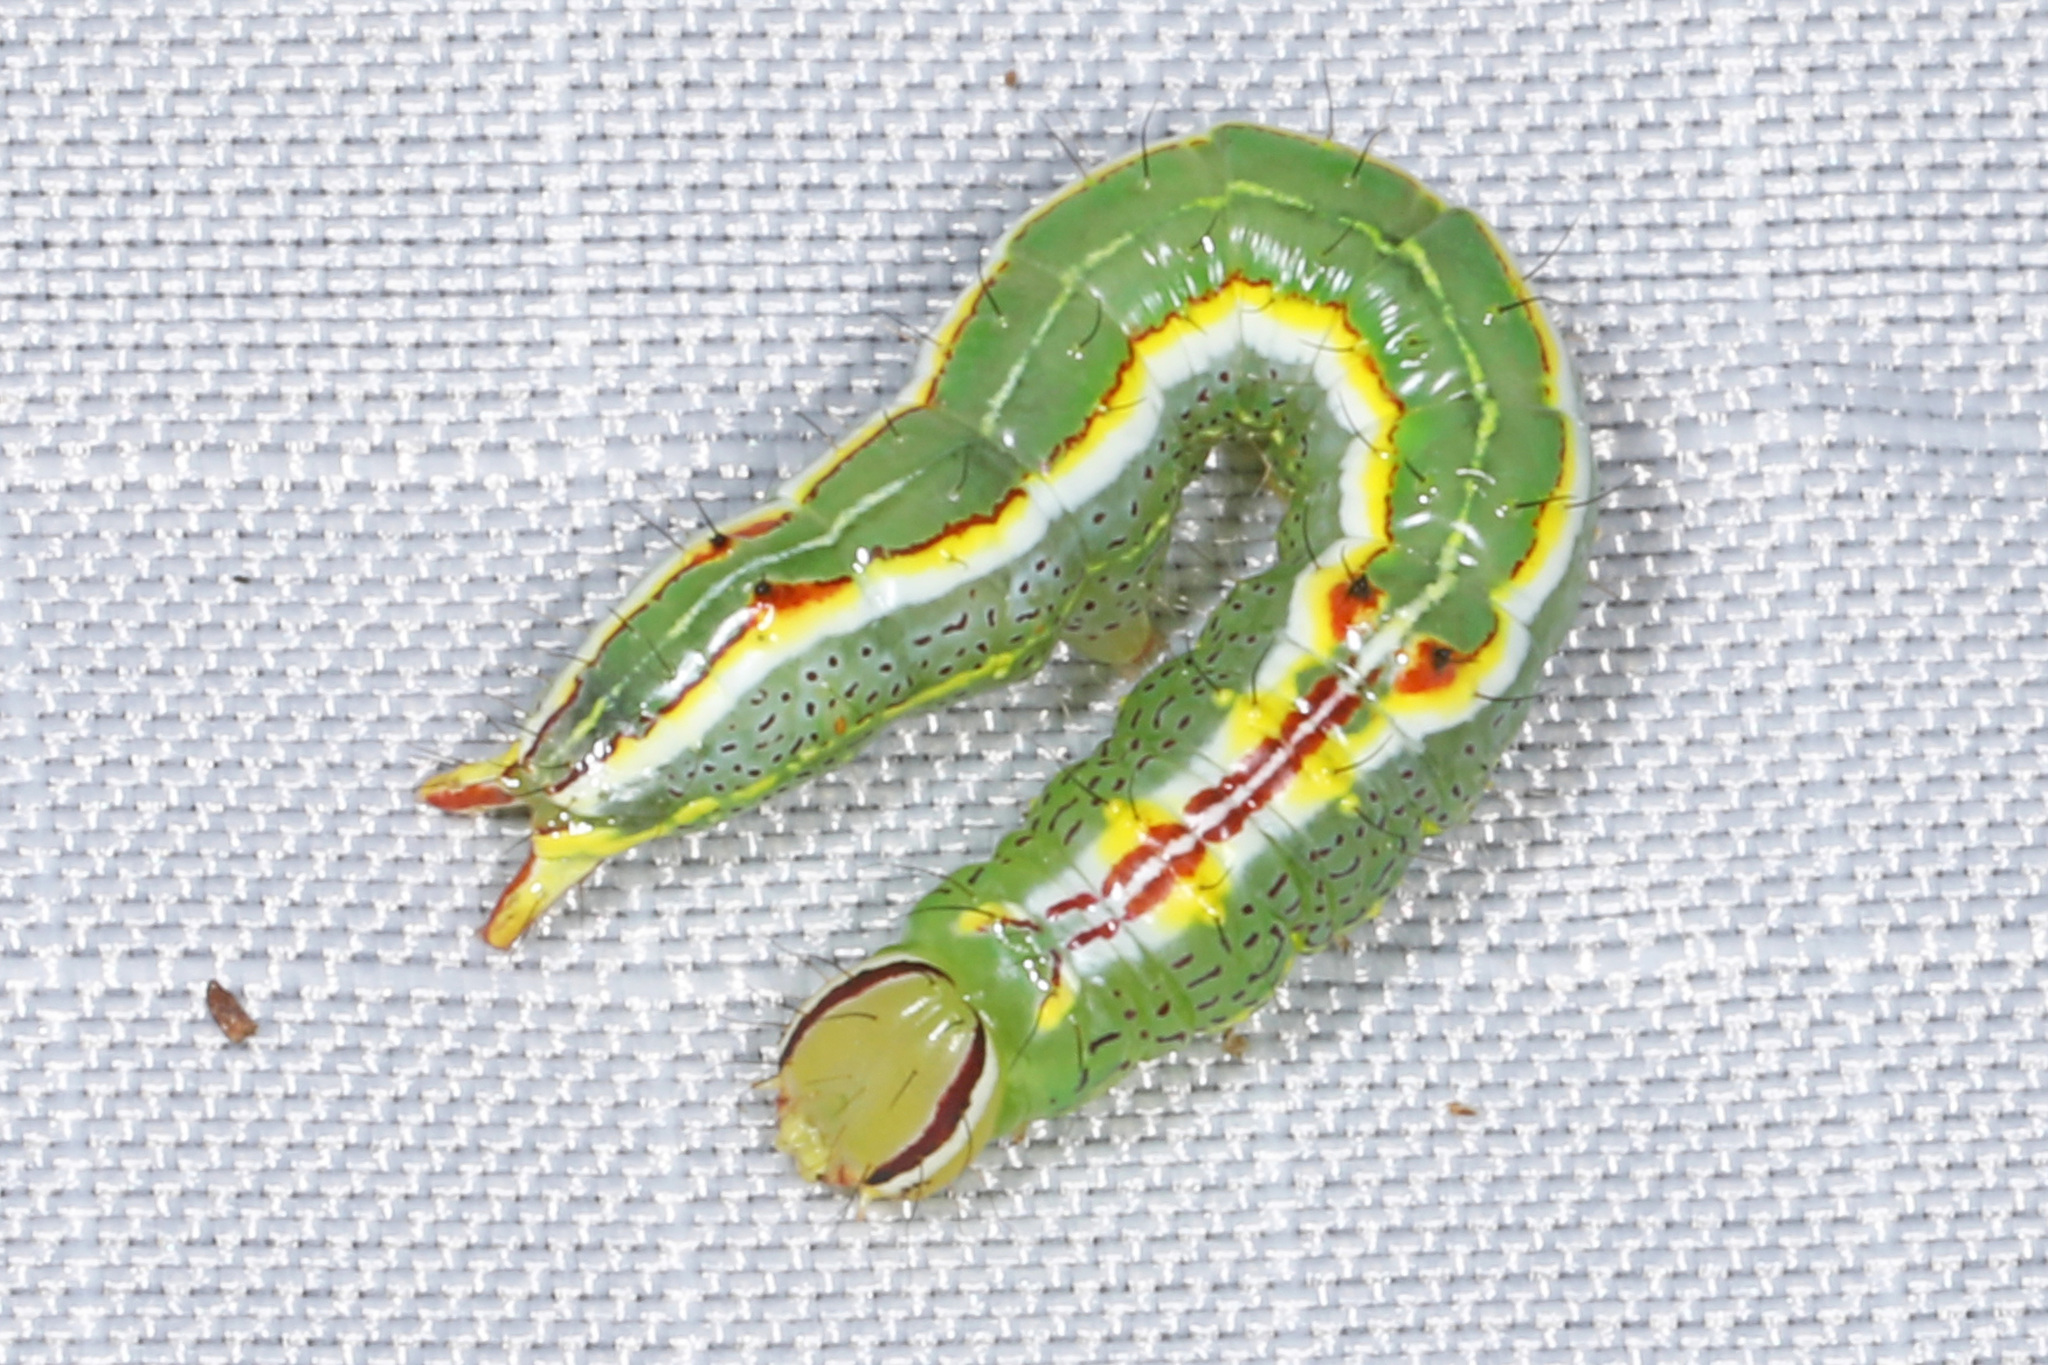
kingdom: Animalia
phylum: Arthropoda
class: Insecta
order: Lepidoptera
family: Notodontidae
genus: Lochmaeus
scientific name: Lochmaeus manteo
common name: Variable oakleaf caterpillar moth
